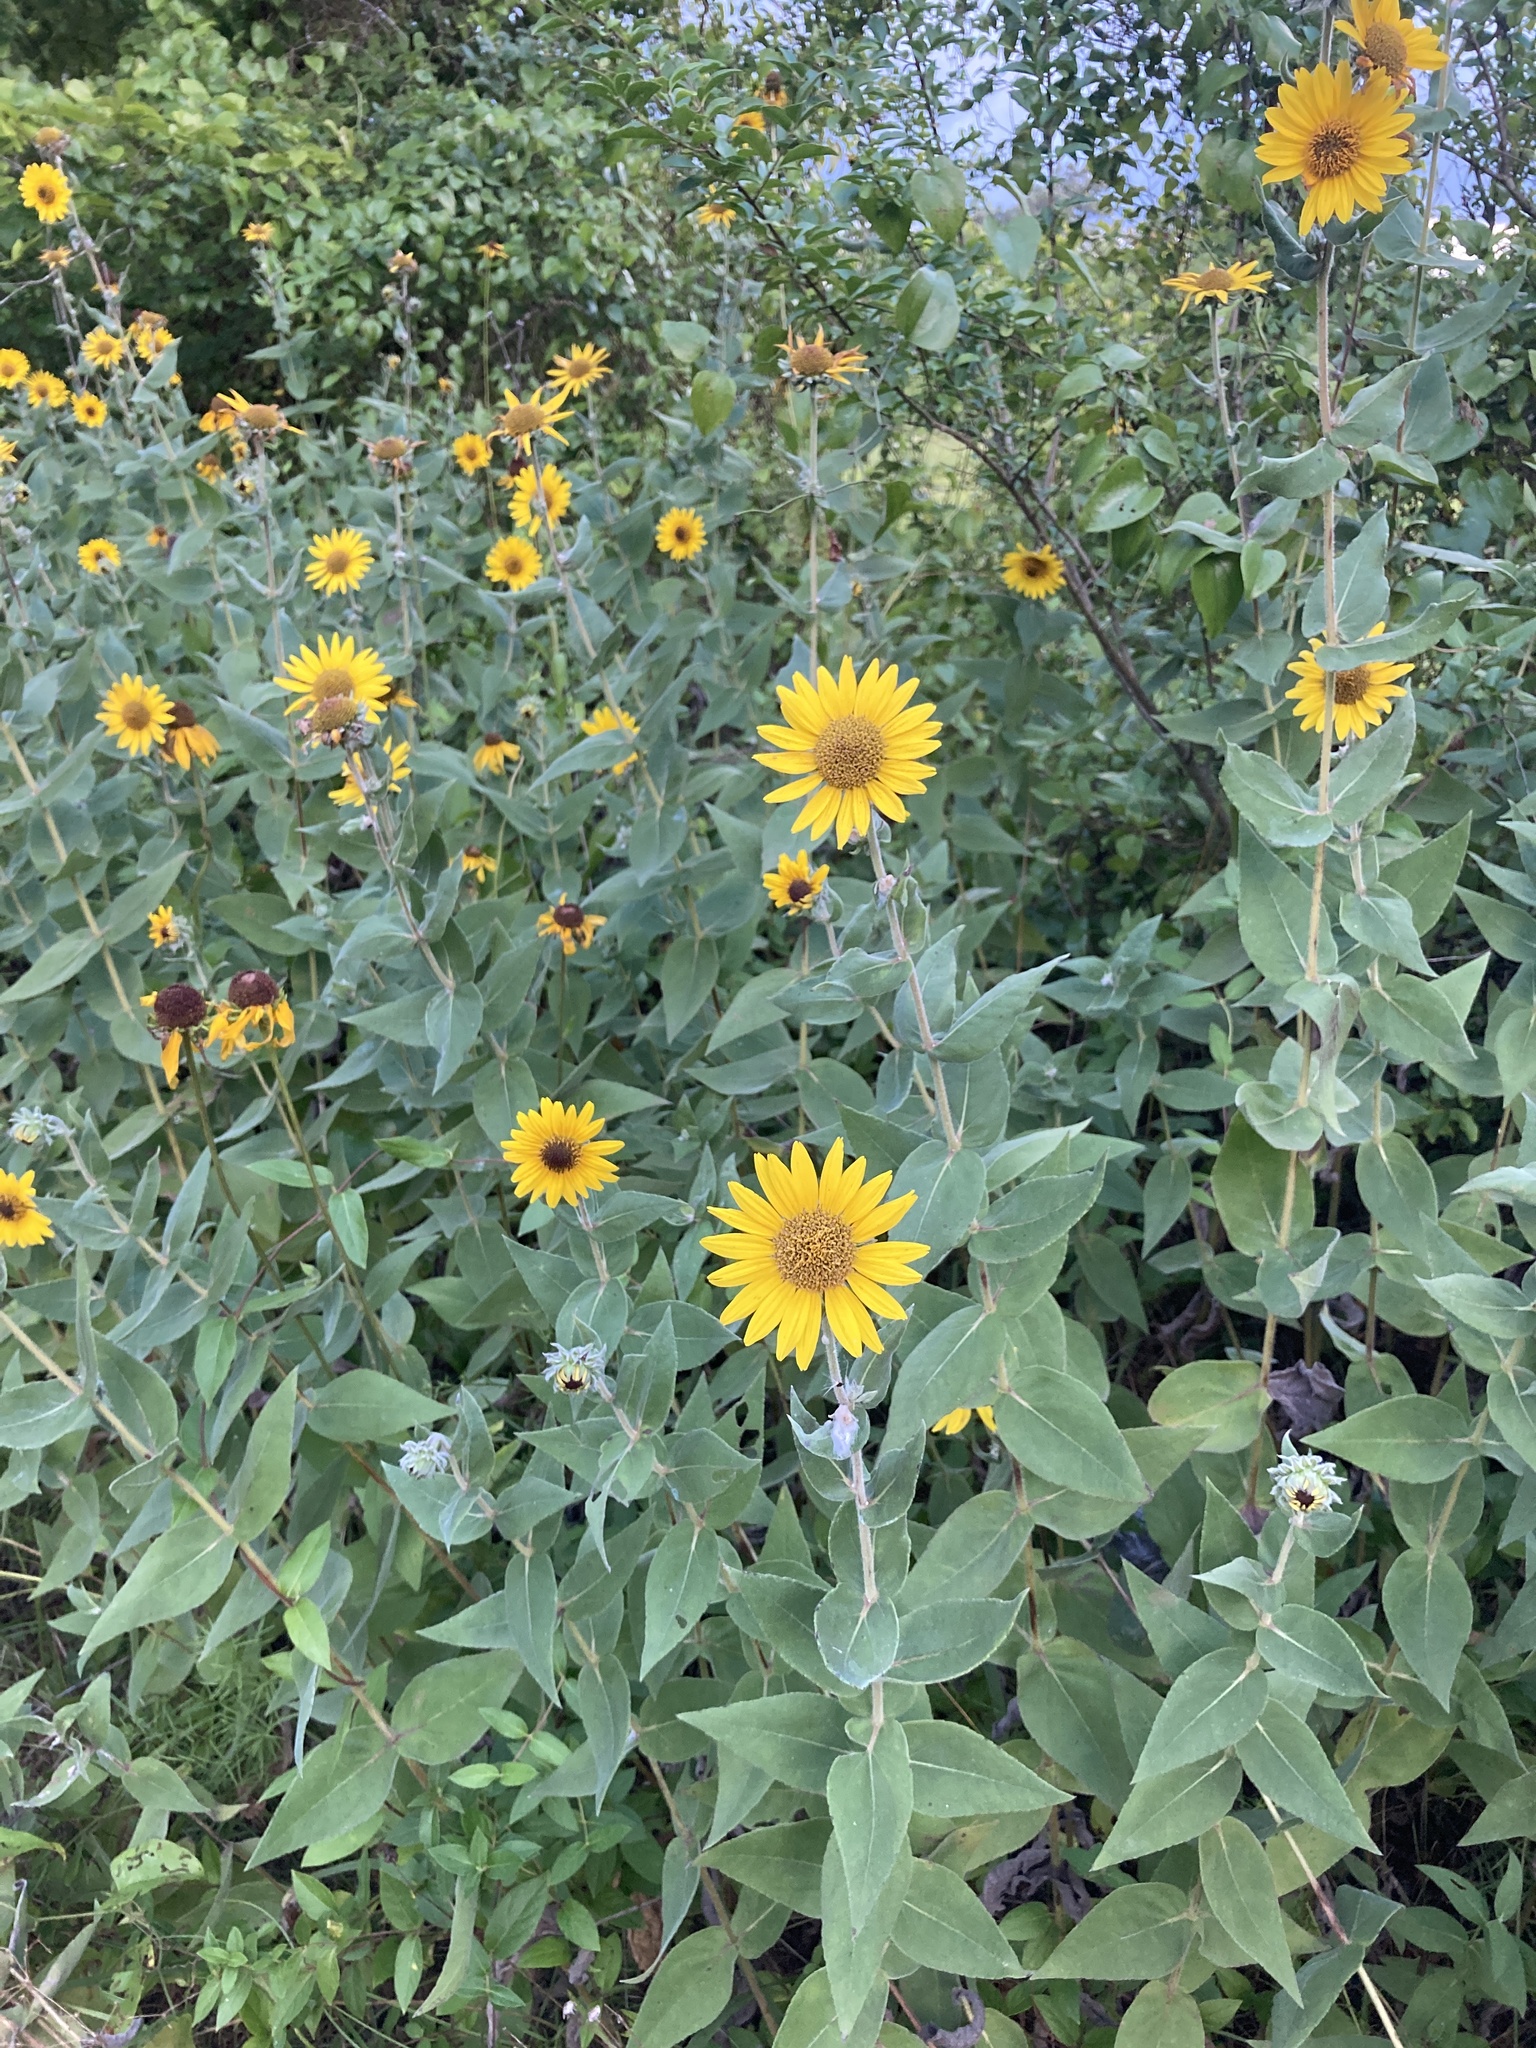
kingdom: Plantae
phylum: Tracheophyta
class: Magnoliopsida
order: Asterales
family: Asteraceae
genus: Helianthus
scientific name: Helianthus mollis
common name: Ashy sunflower
